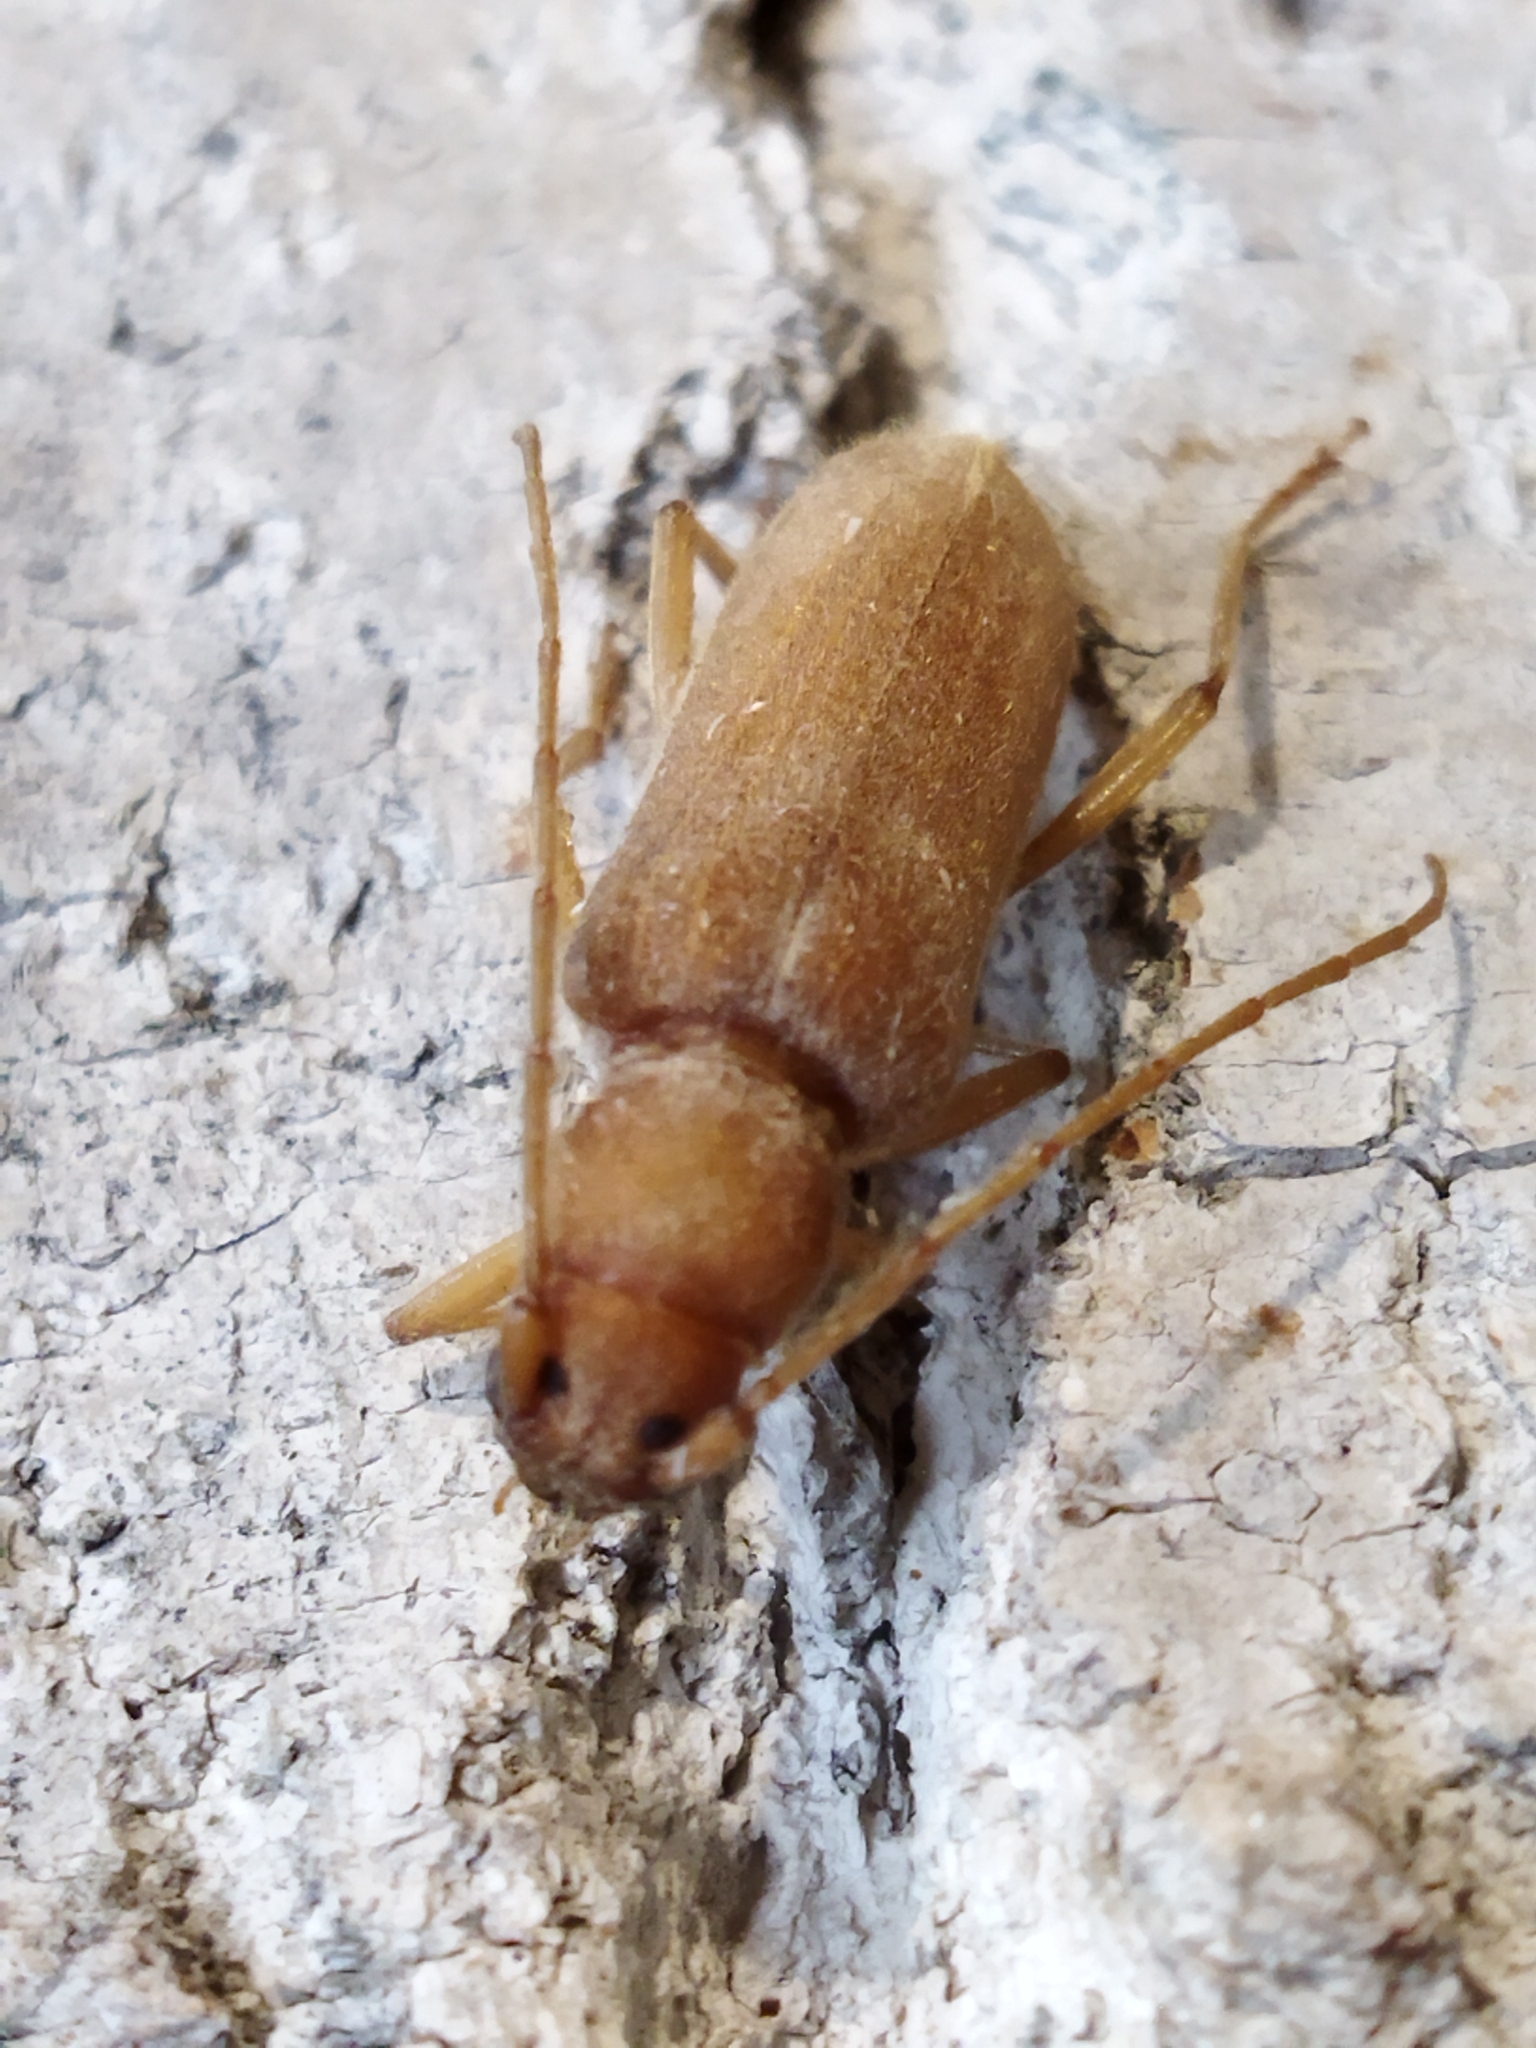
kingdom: Animalia
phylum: Arthropoda
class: Insecta
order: Coleoptera
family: Cerambycidae
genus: Stromatium
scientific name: Stromatium auratum
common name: Long-horned beetle
